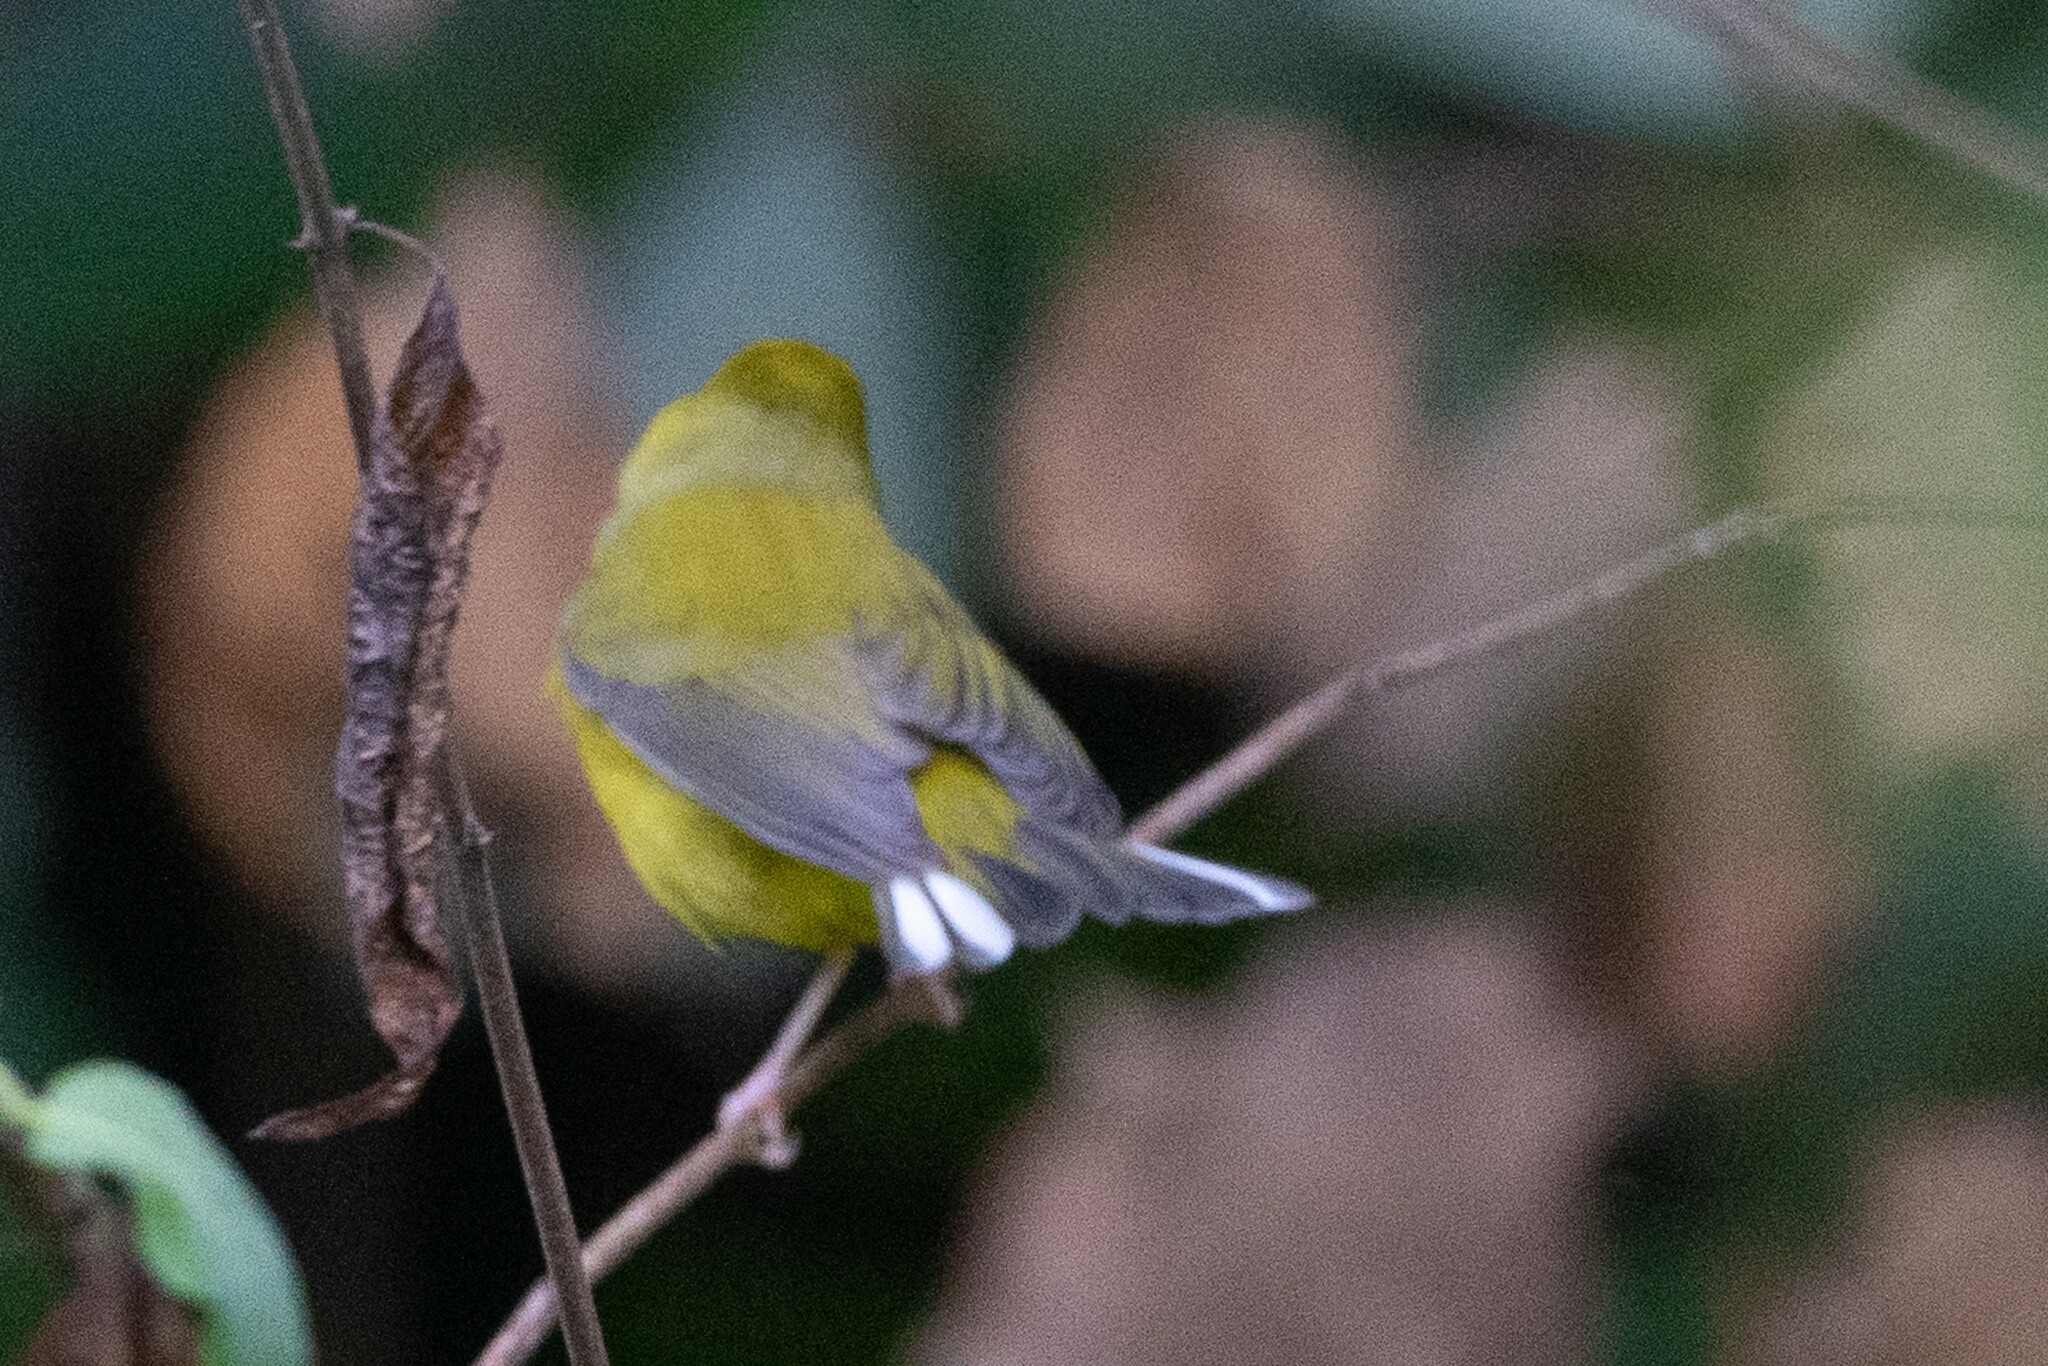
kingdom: Animalia
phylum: Chordata
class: Aves
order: Passeriformes
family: Parulidae
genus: Setophaga
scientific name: Setophaga citrina
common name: Hooded warbler
